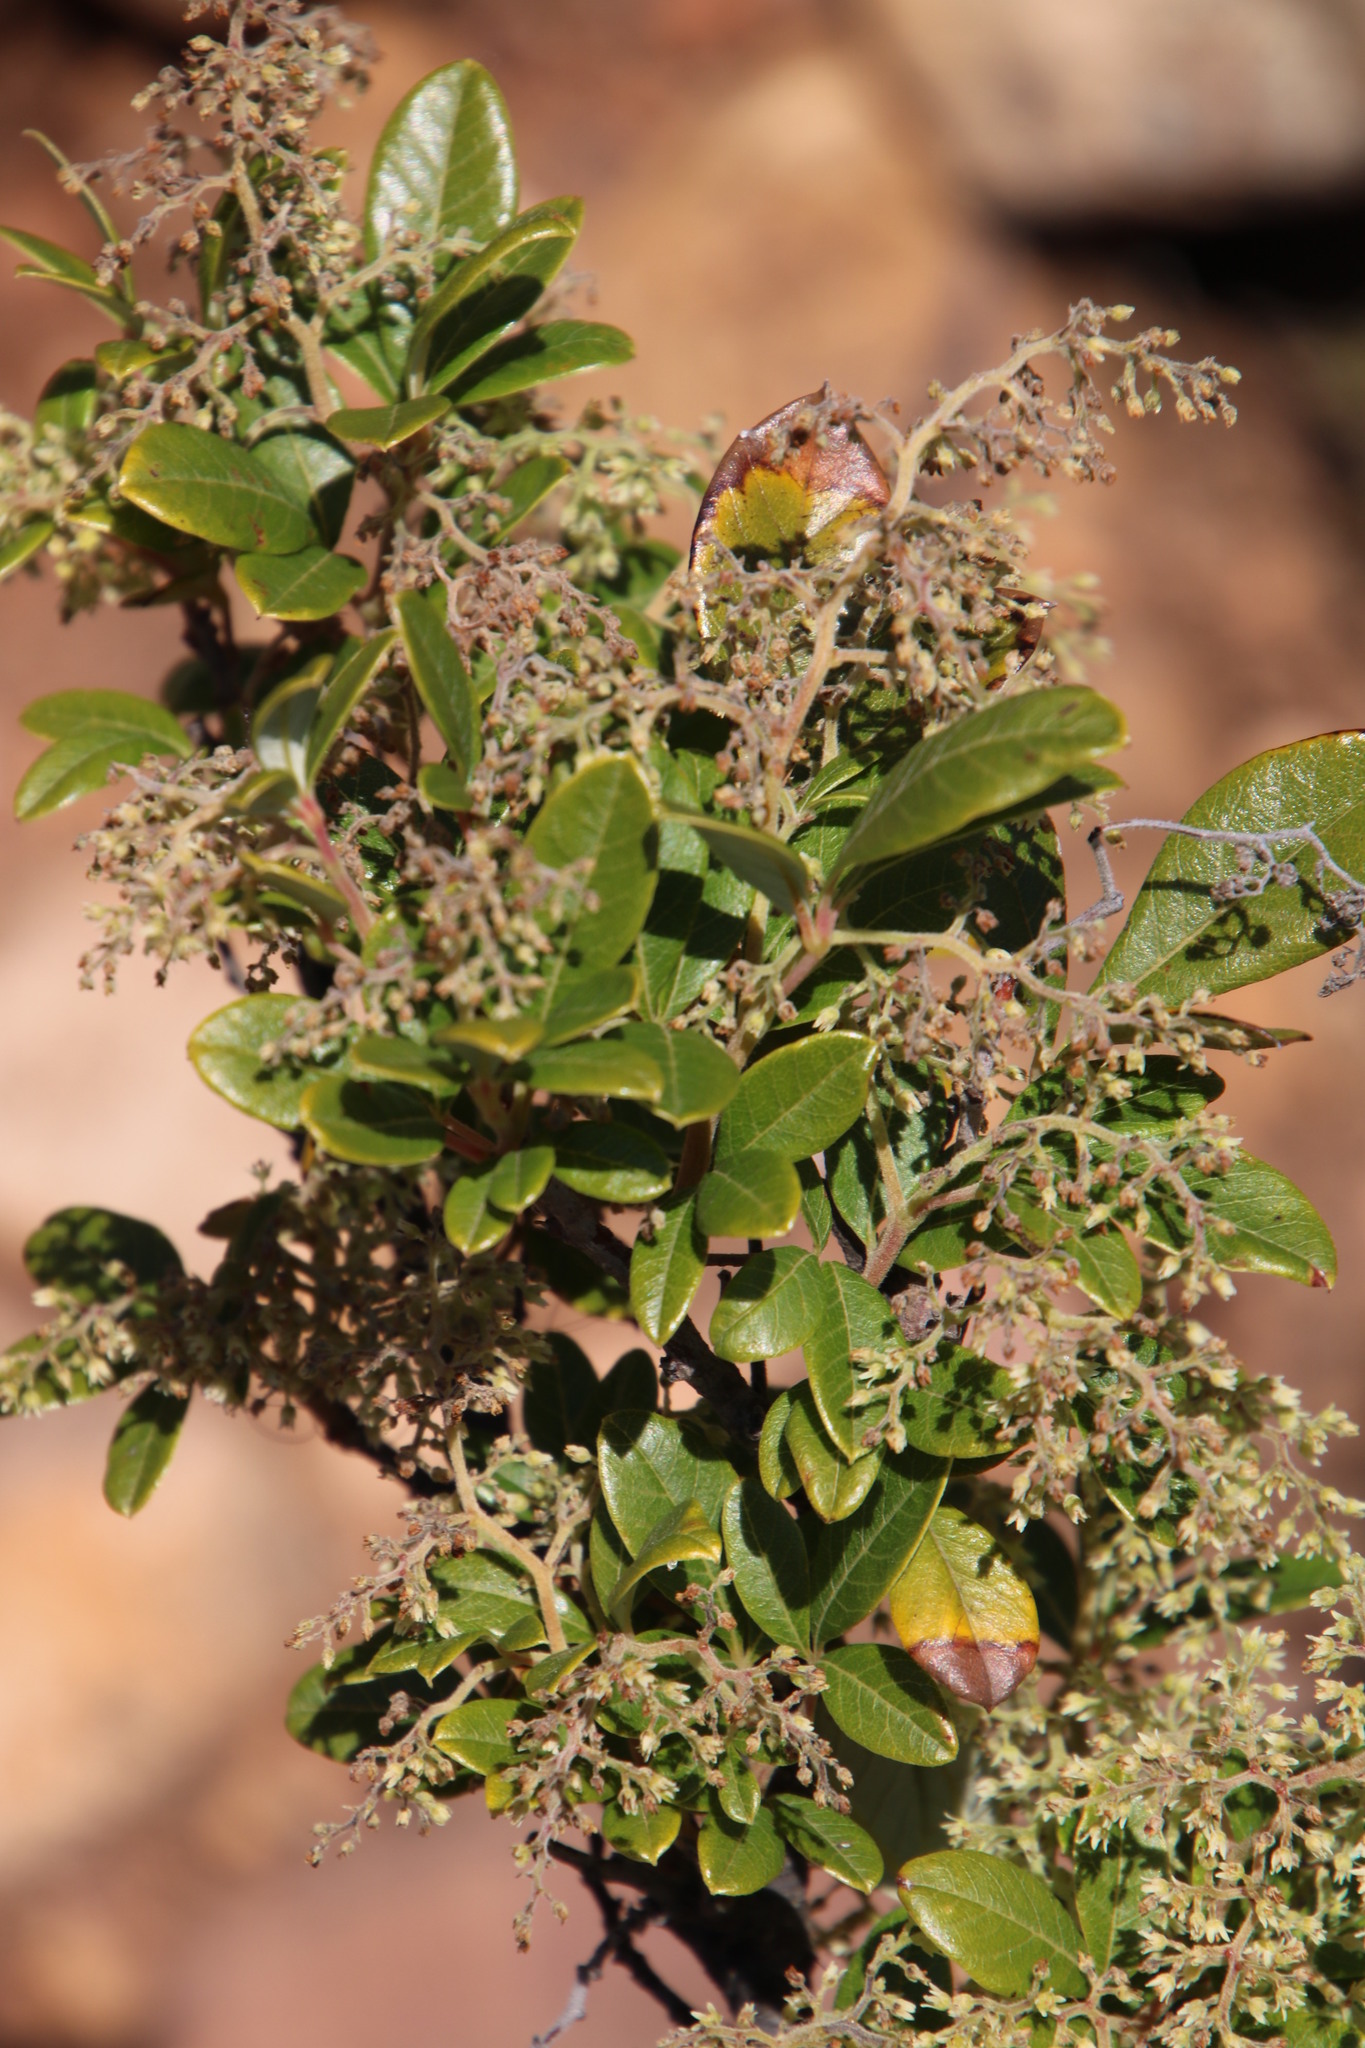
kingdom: Plantae
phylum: Tracheophyta
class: Magnoliopsida
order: Sapindales
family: Anacardiaceae
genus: Searsia
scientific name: Searsia tomentosa
